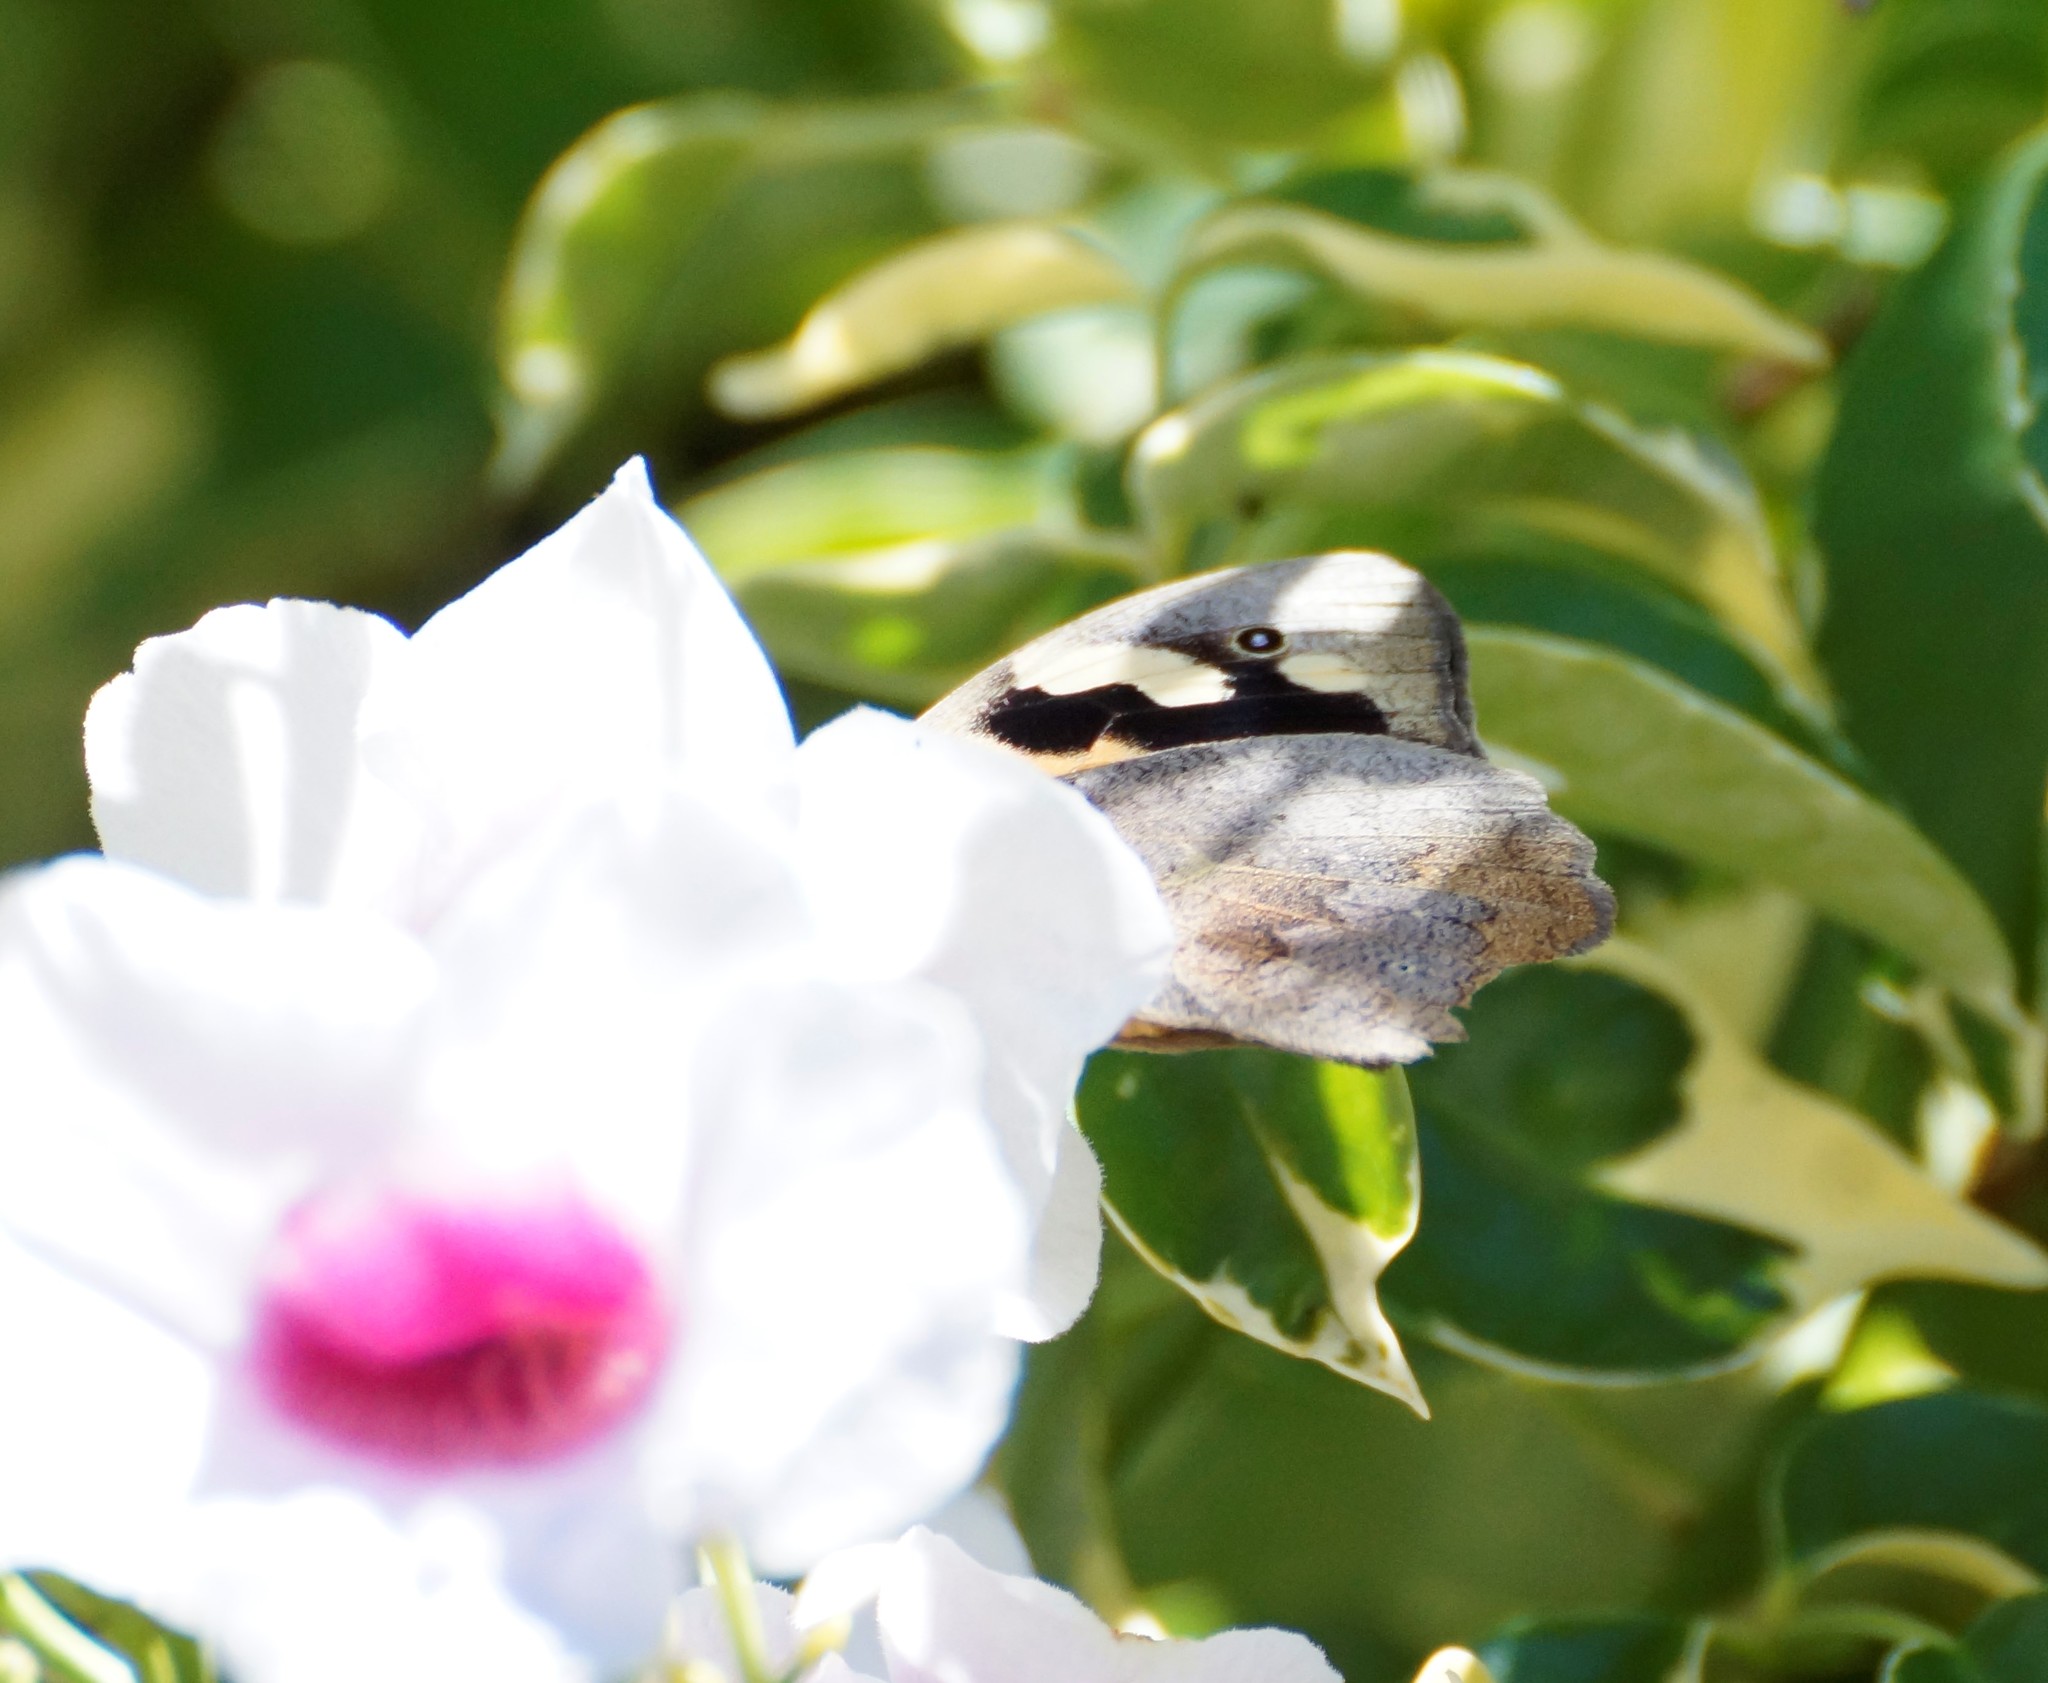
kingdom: Animalia
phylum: Arthropoda
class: Insecta
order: Lepidoptera
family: Nymphalidae
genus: Heteronympha
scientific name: Heteronympha merope
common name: Common brown
